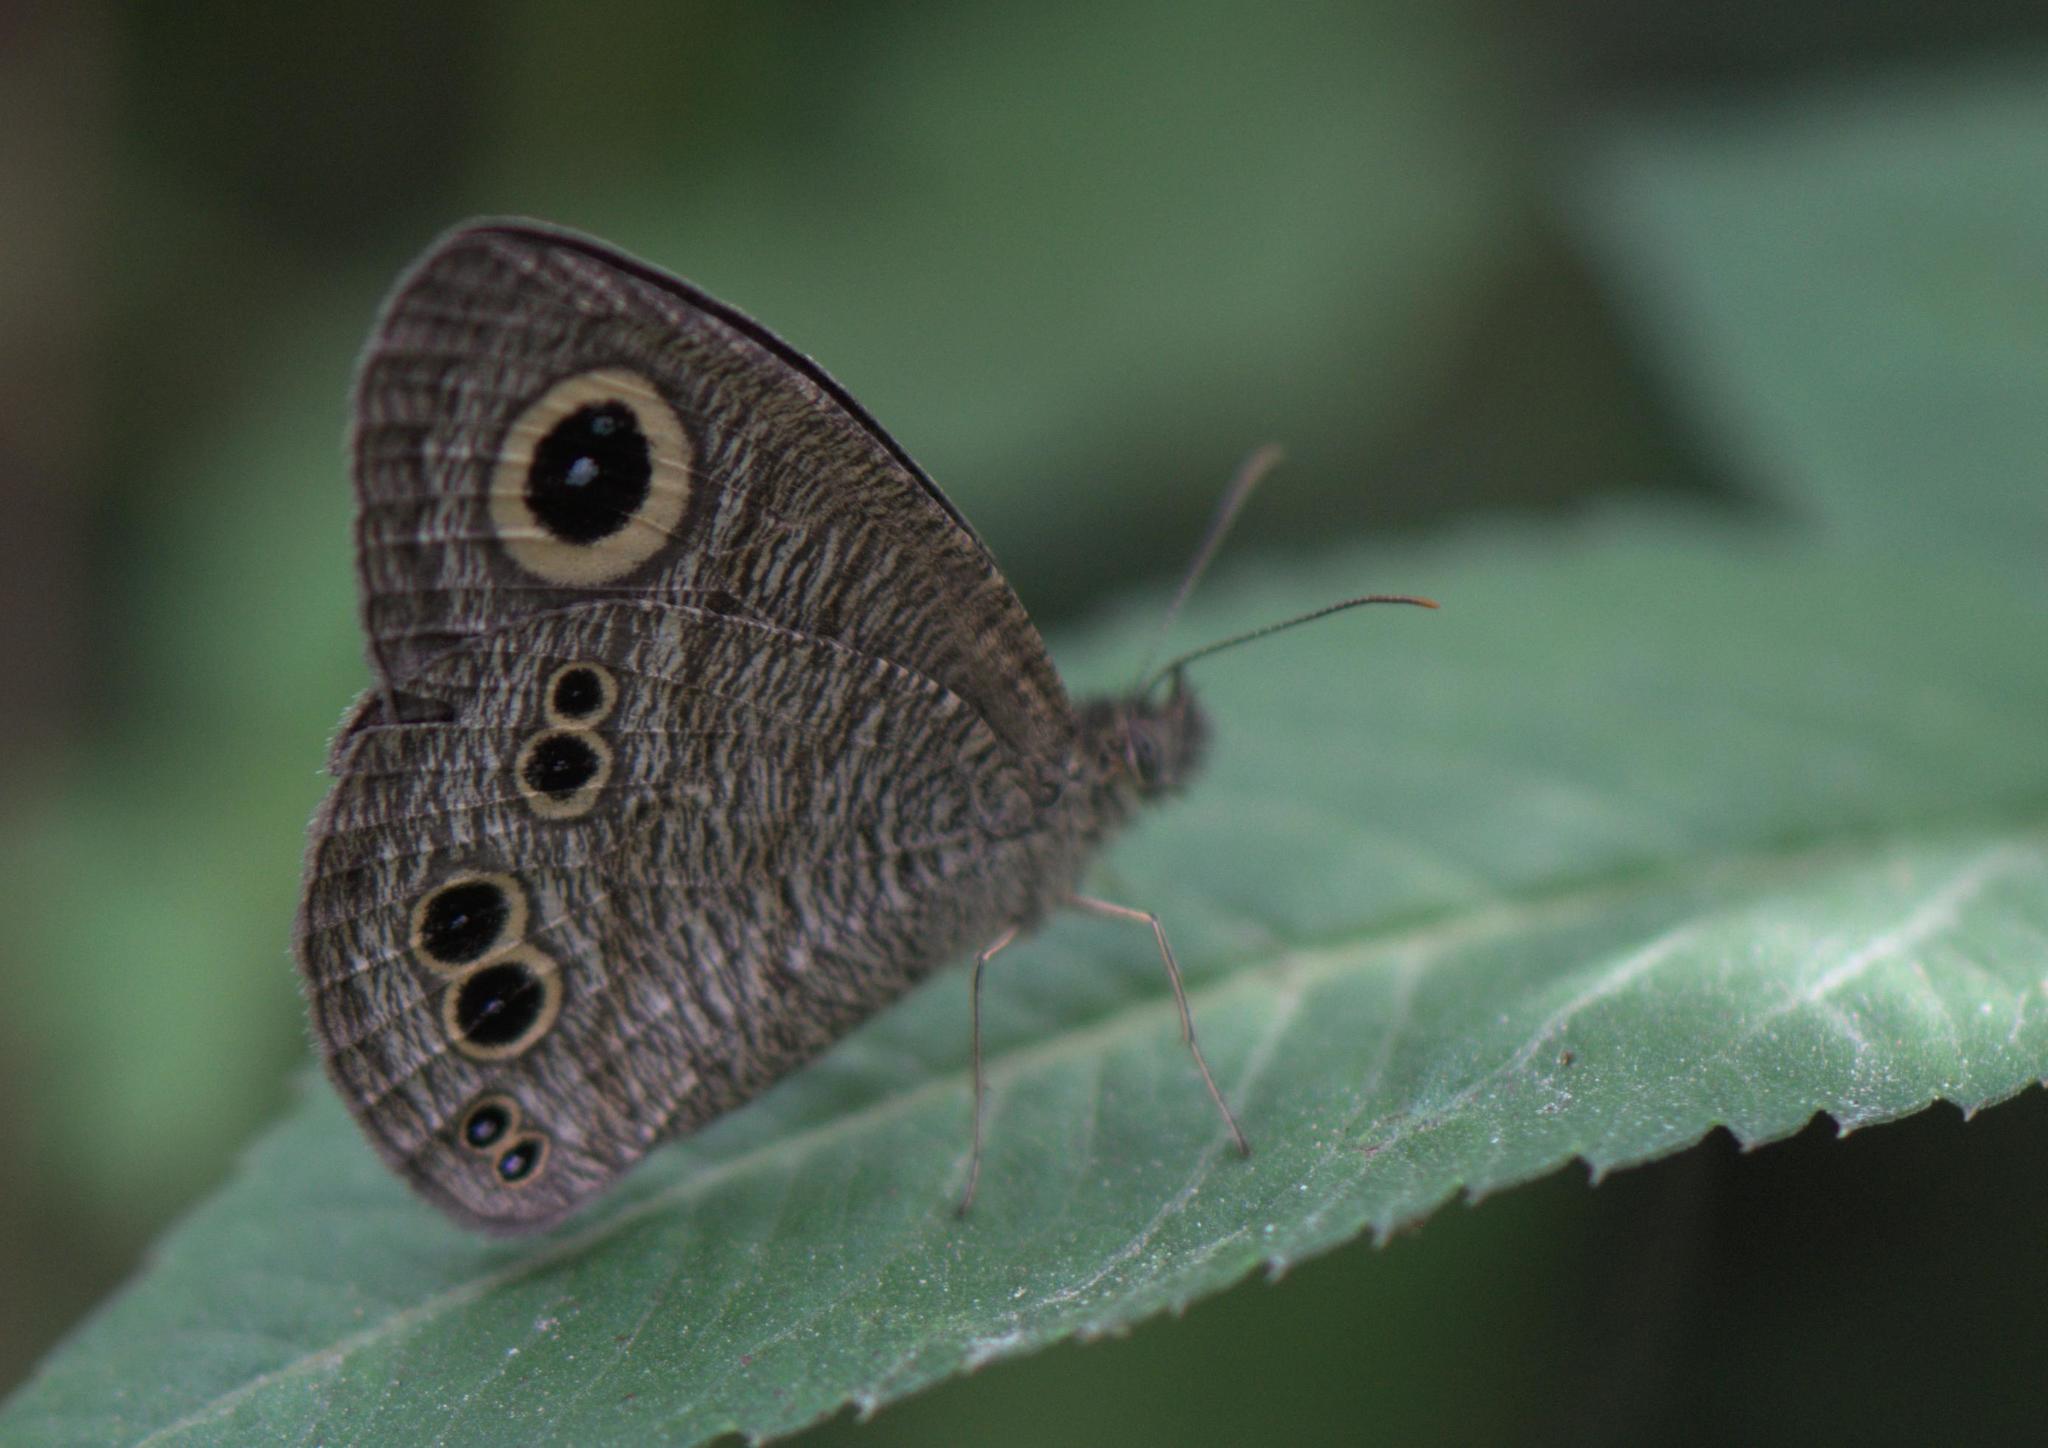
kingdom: Animalia
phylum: Arthropoda
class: Insecta
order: Lepidoptera
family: Nymphalidae
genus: Ypthima
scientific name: Ypthima baldus
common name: Common five-ring
